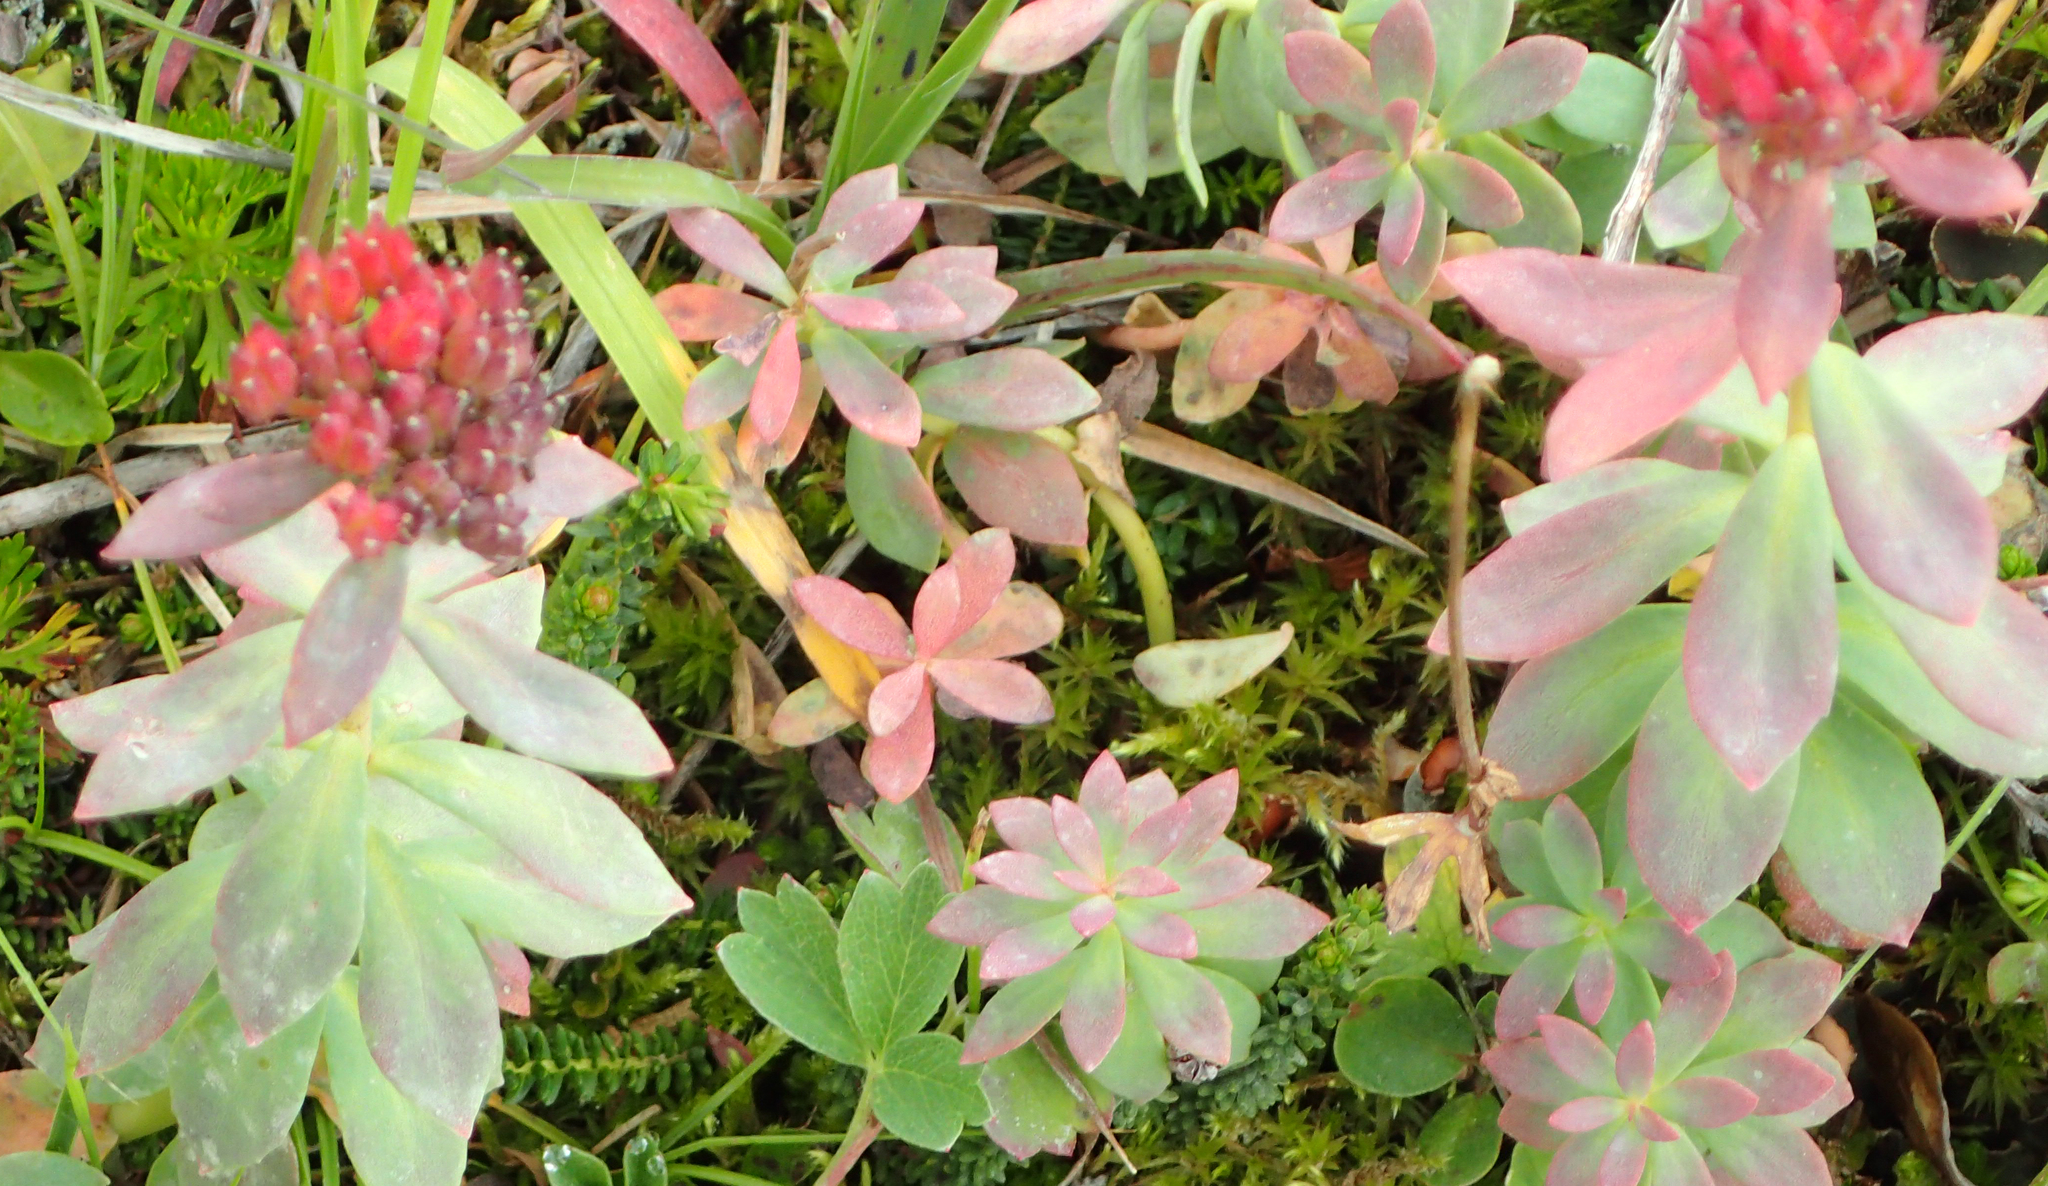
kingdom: Plantae
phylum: Tracheophyta
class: Magnoliopsida
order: Saxifragales
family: Crassulaceae
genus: Rhodiola
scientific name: Rhodiola integrifolia
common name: Western roseroot
